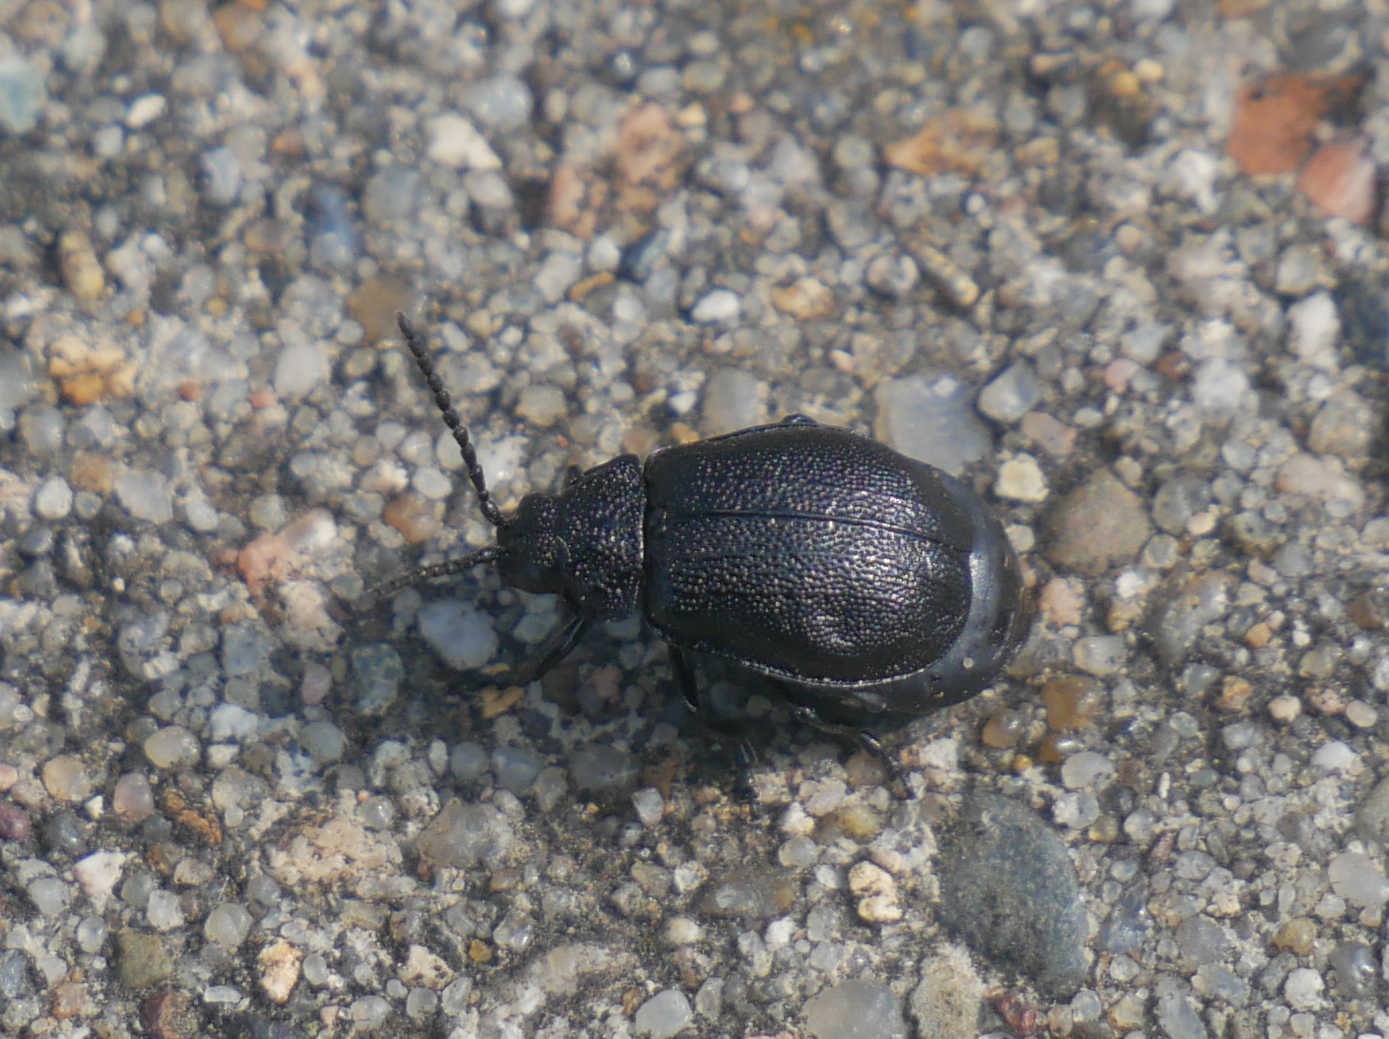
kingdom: Animalia
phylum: Arthropoda
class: Insecta
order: Coleoptera
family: Chrysomelidae
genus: Galeruca
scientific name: Galeruca tanaceti
